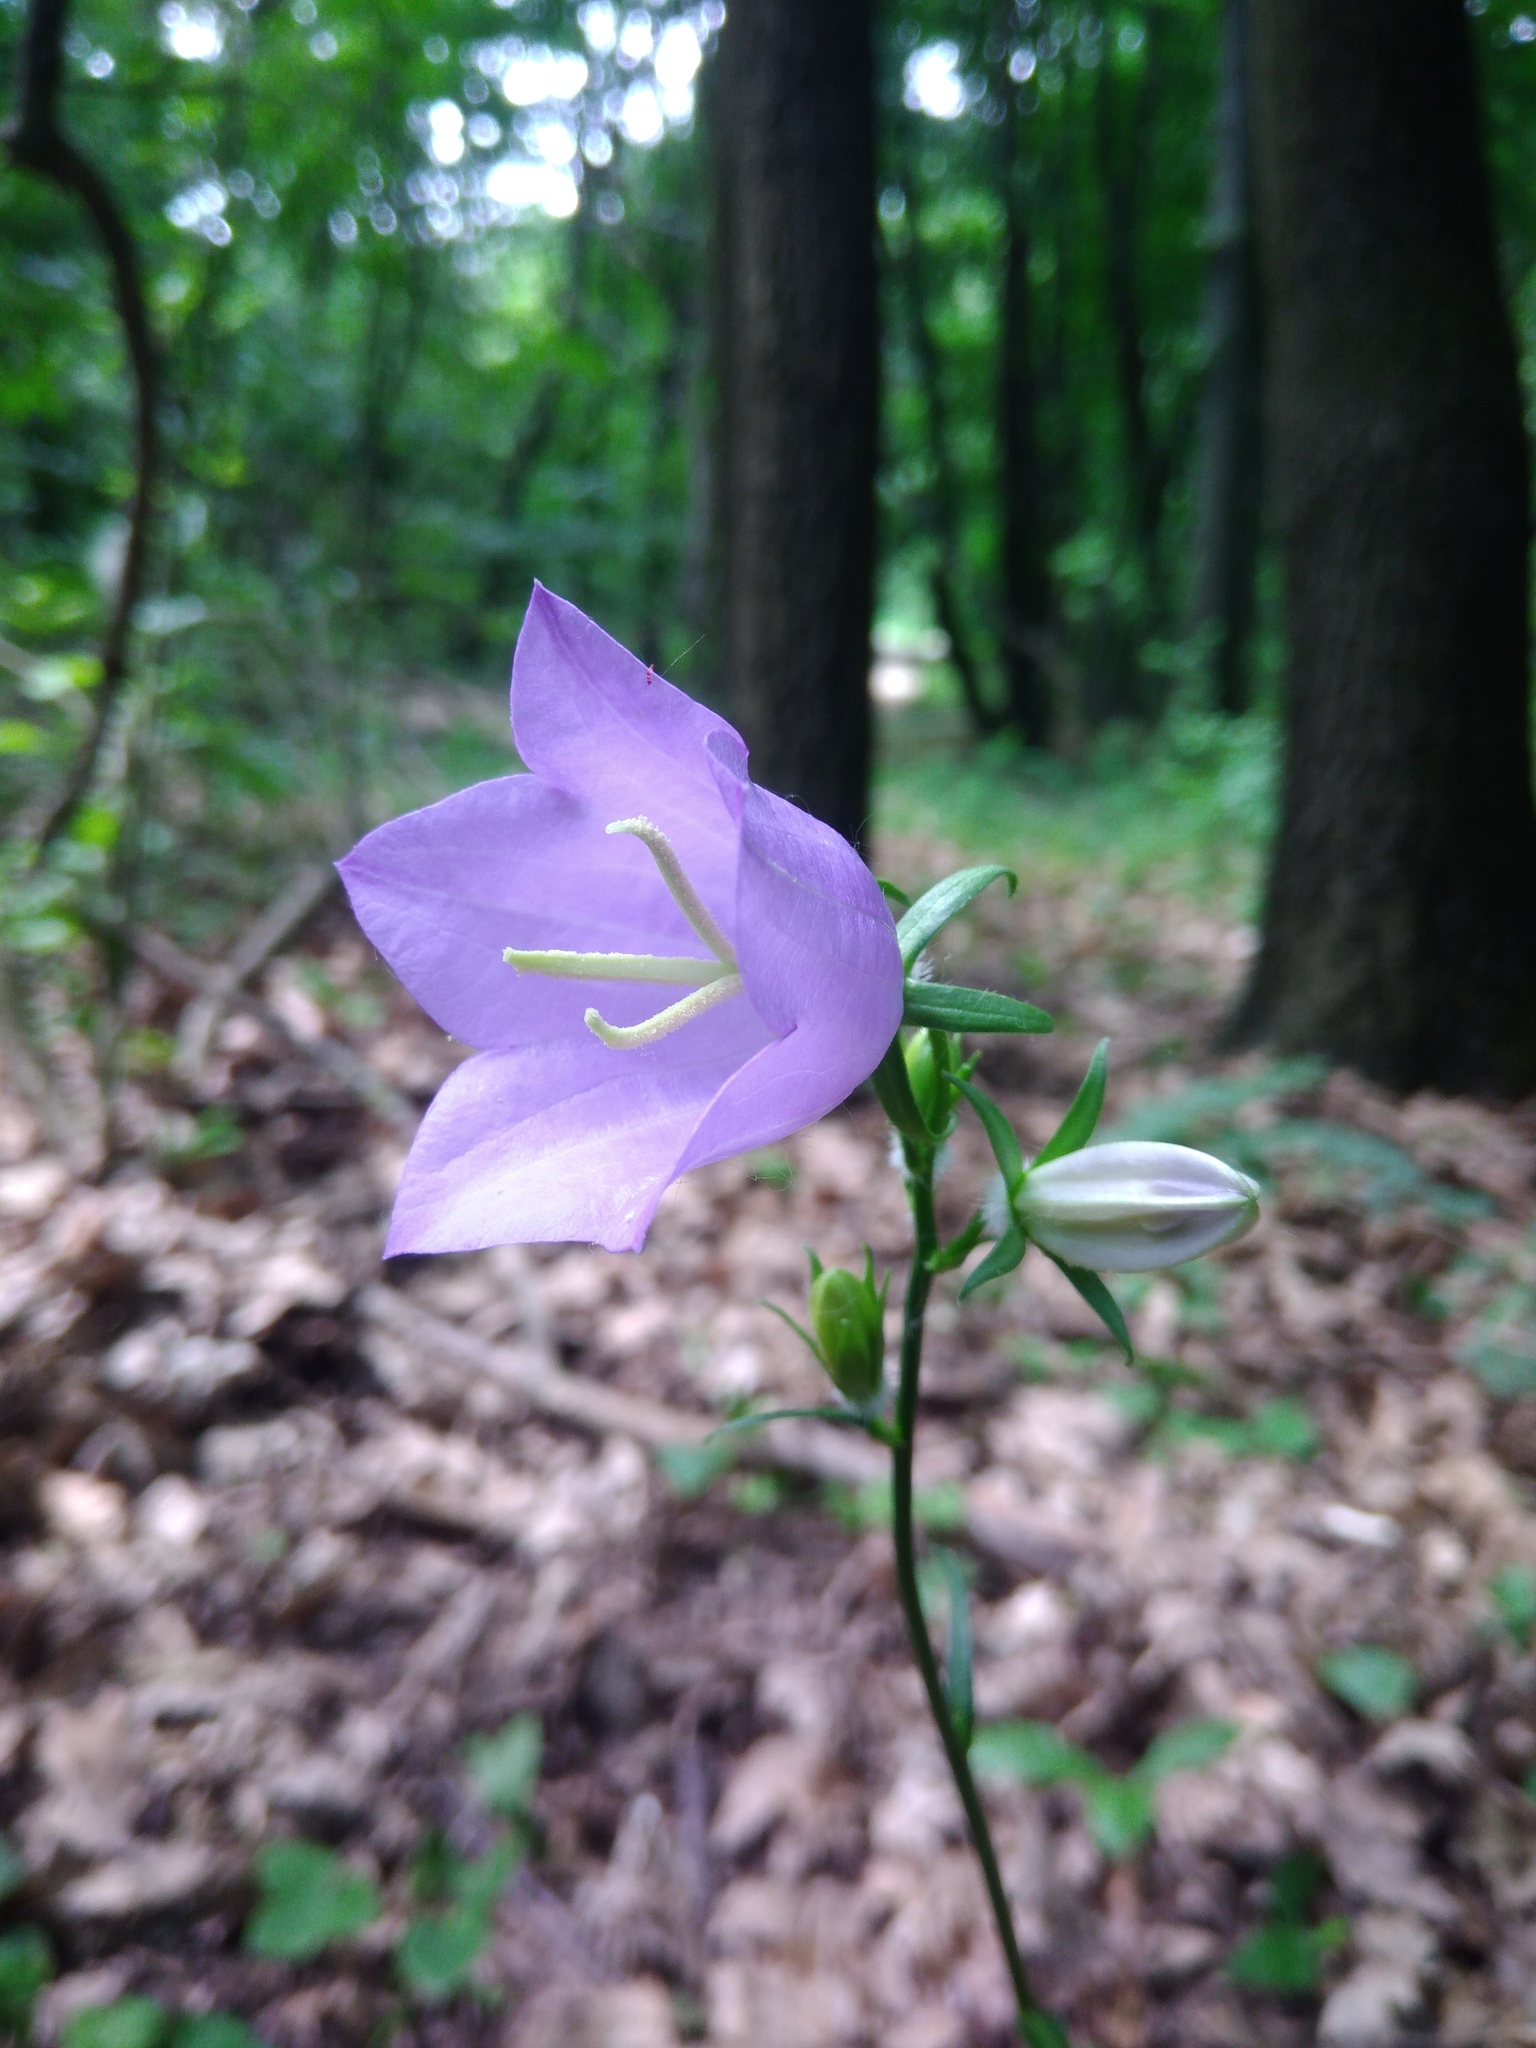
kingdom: Plantae
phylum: Tracheophyta
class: Magnoliopsida
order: Asterales
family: Campanulaceae
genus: Campanula
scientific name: Campanula persicifolia
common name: Peach-leaved bellflower
